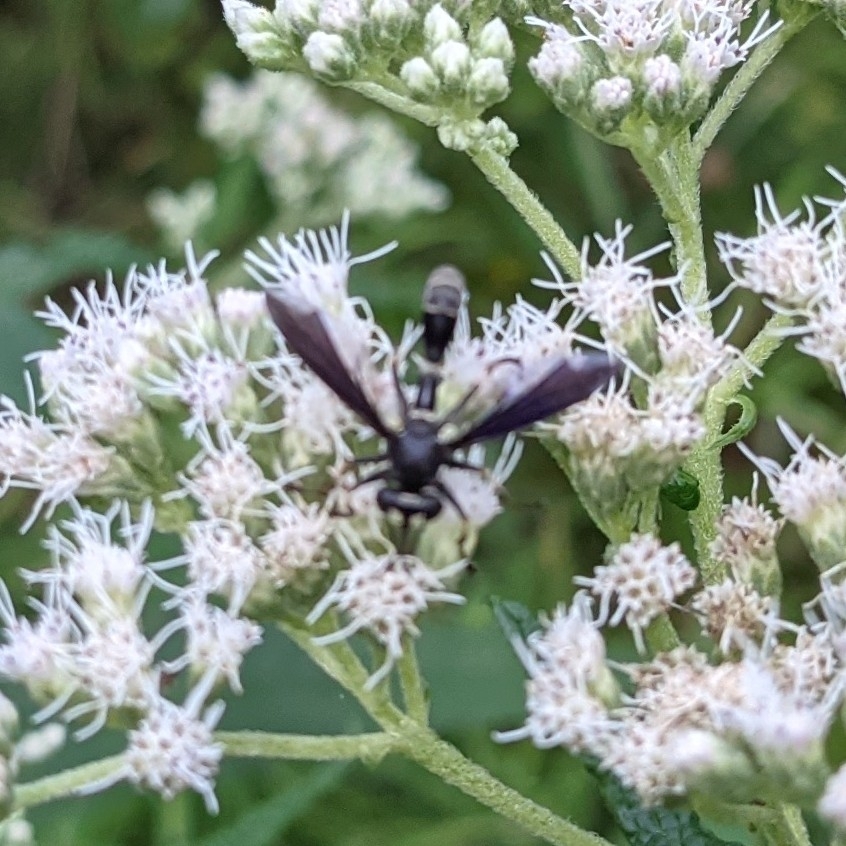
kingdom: Animalia
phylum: Arthropoda
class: Insecta
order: Diptera
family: Conopidae
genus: Physocephala
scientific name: Physocephala tibialis
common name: Common eastern physocephala
